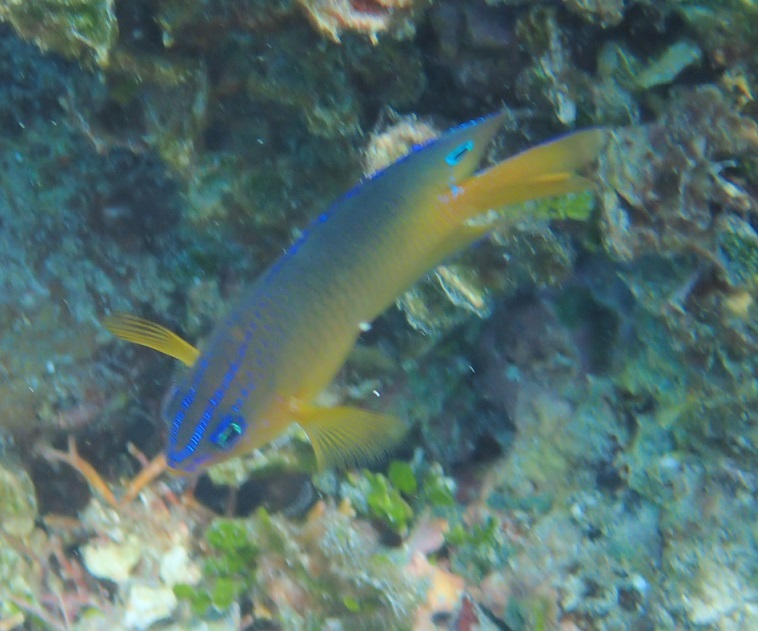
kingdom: Animalia
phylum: Chordata
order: Perciformes
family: Pomacentridae
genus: Pomacentrus
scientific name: Pomacentrus wardi
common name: Ward's damsel
